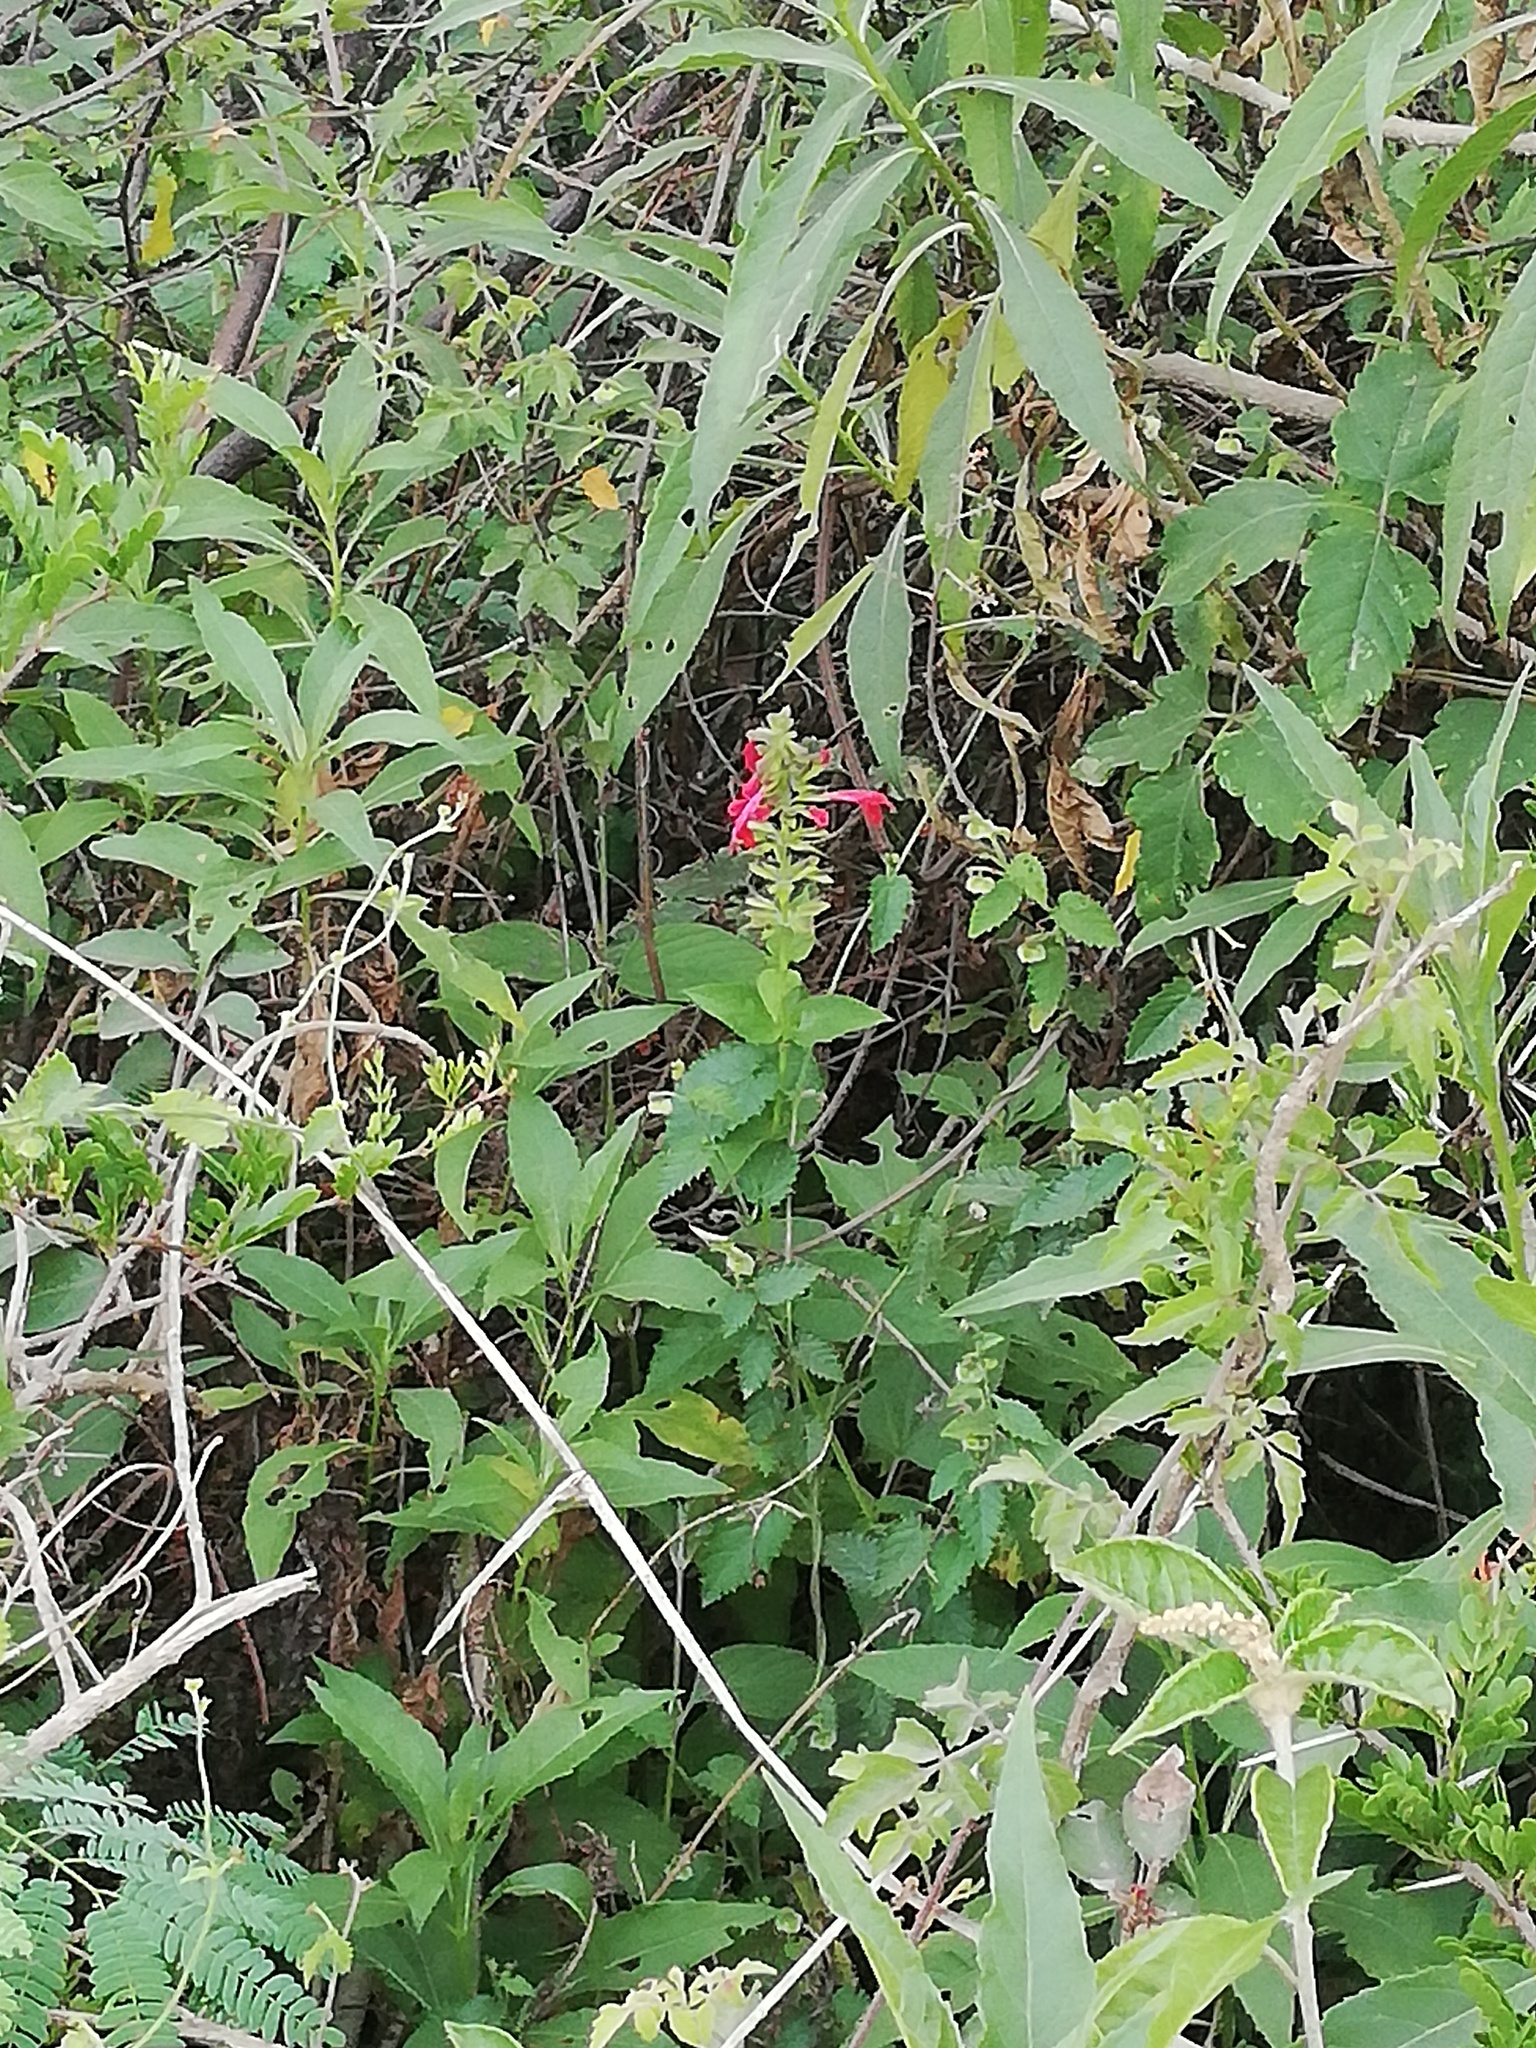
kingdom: Plantae
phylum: Tracheophyta
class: Magnoliopsida
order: Lamiales
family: Lamiaceae
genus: Salvia
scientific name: Salvia coccinea
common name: Blood sage
